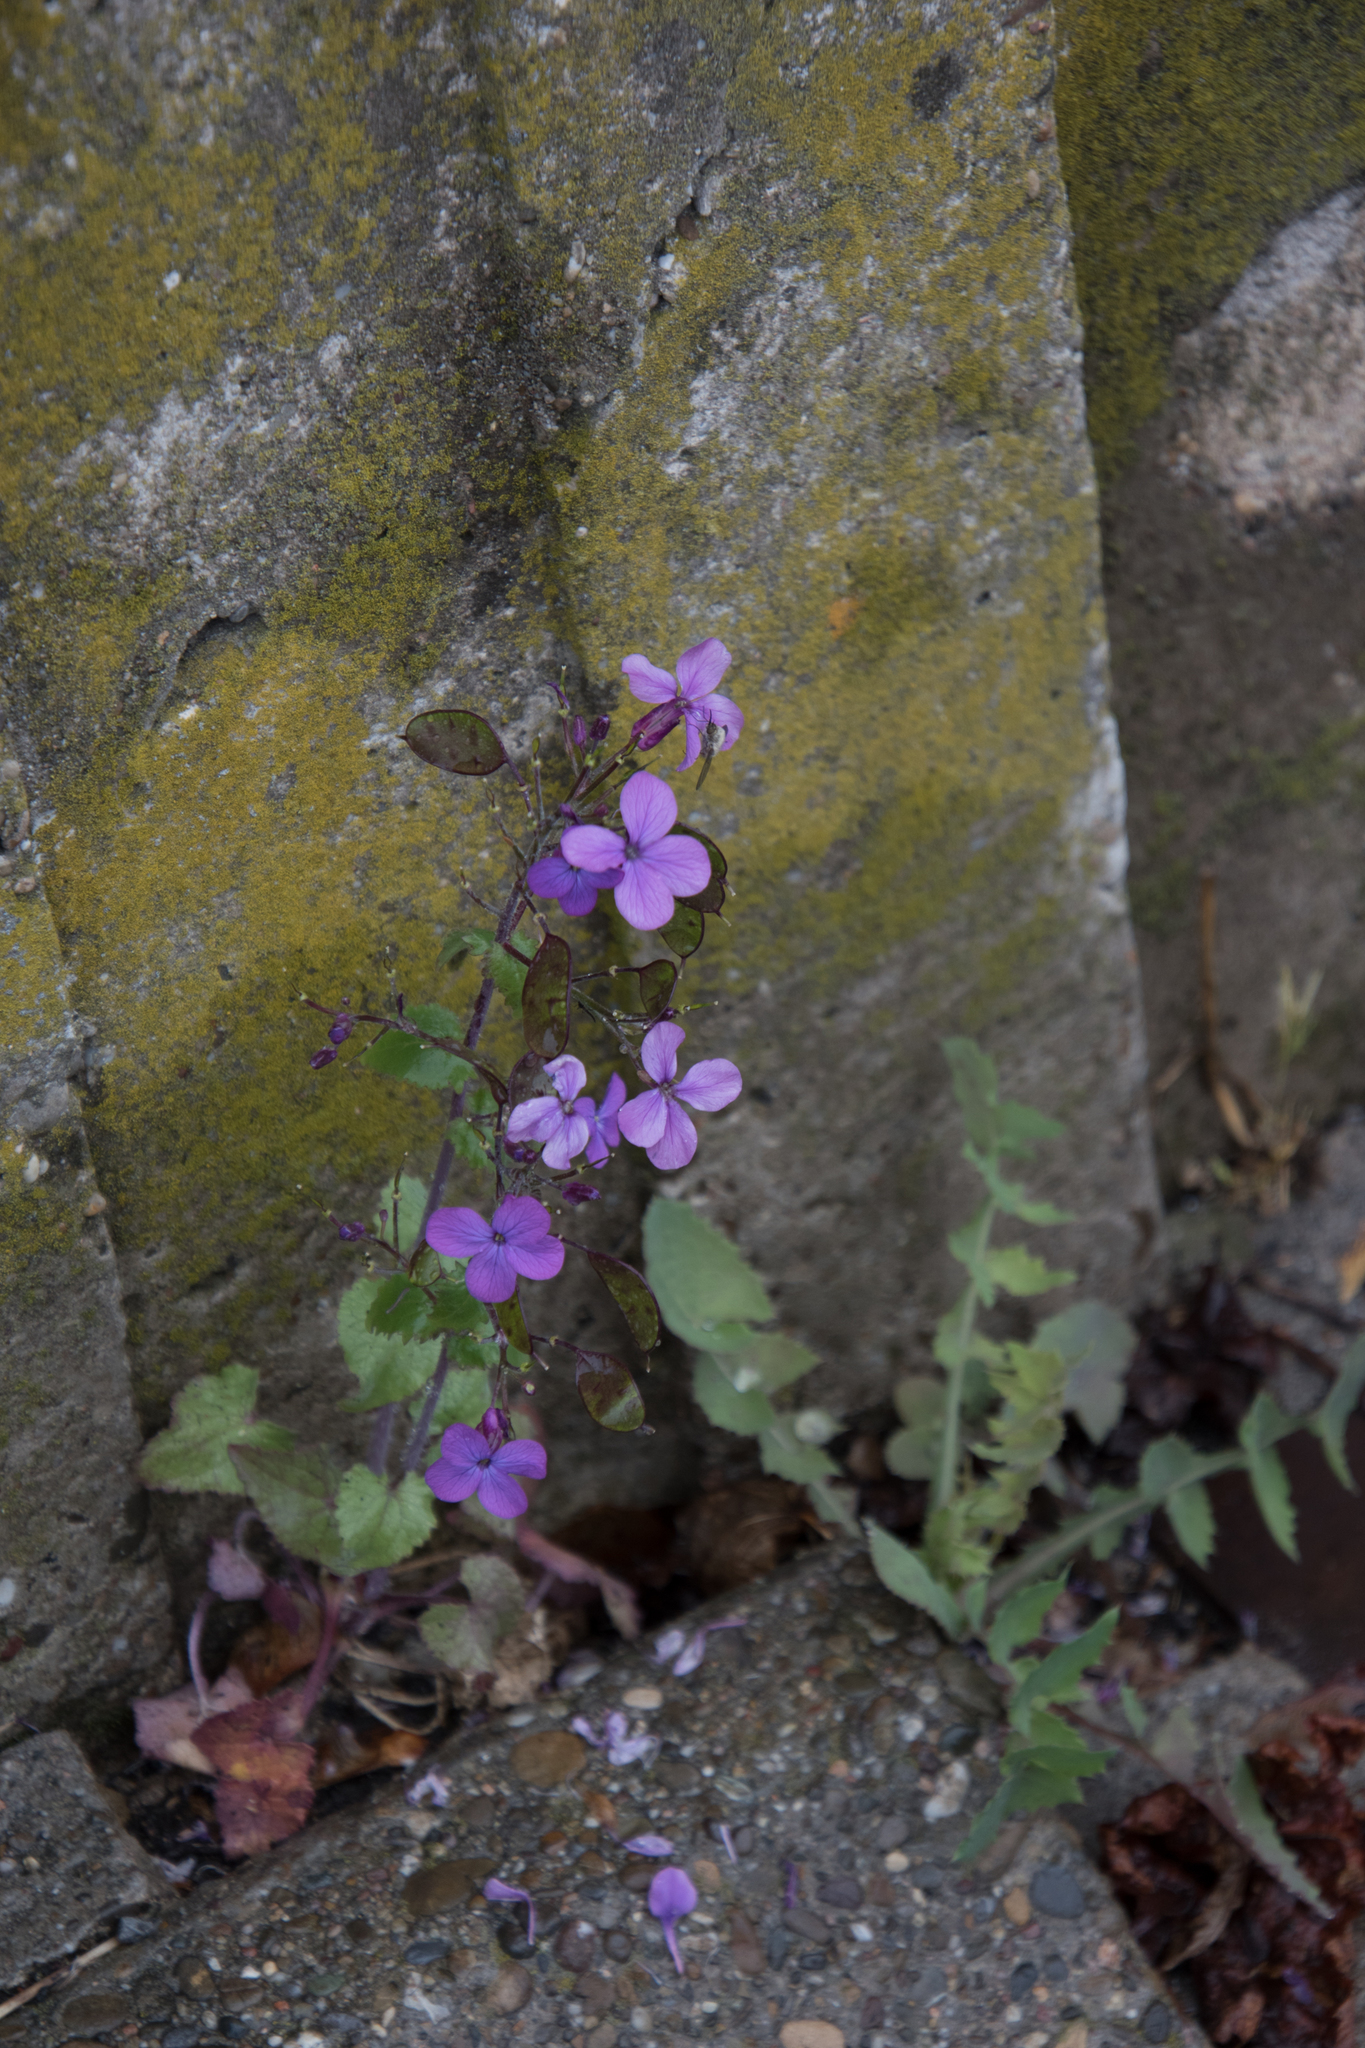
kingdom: Plantae
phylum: Tracheophyta
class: Magnoliopsida
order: Brassicales
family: Brassicaceae
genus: Lunaria
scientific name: Lunaria annua
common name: Honesty
